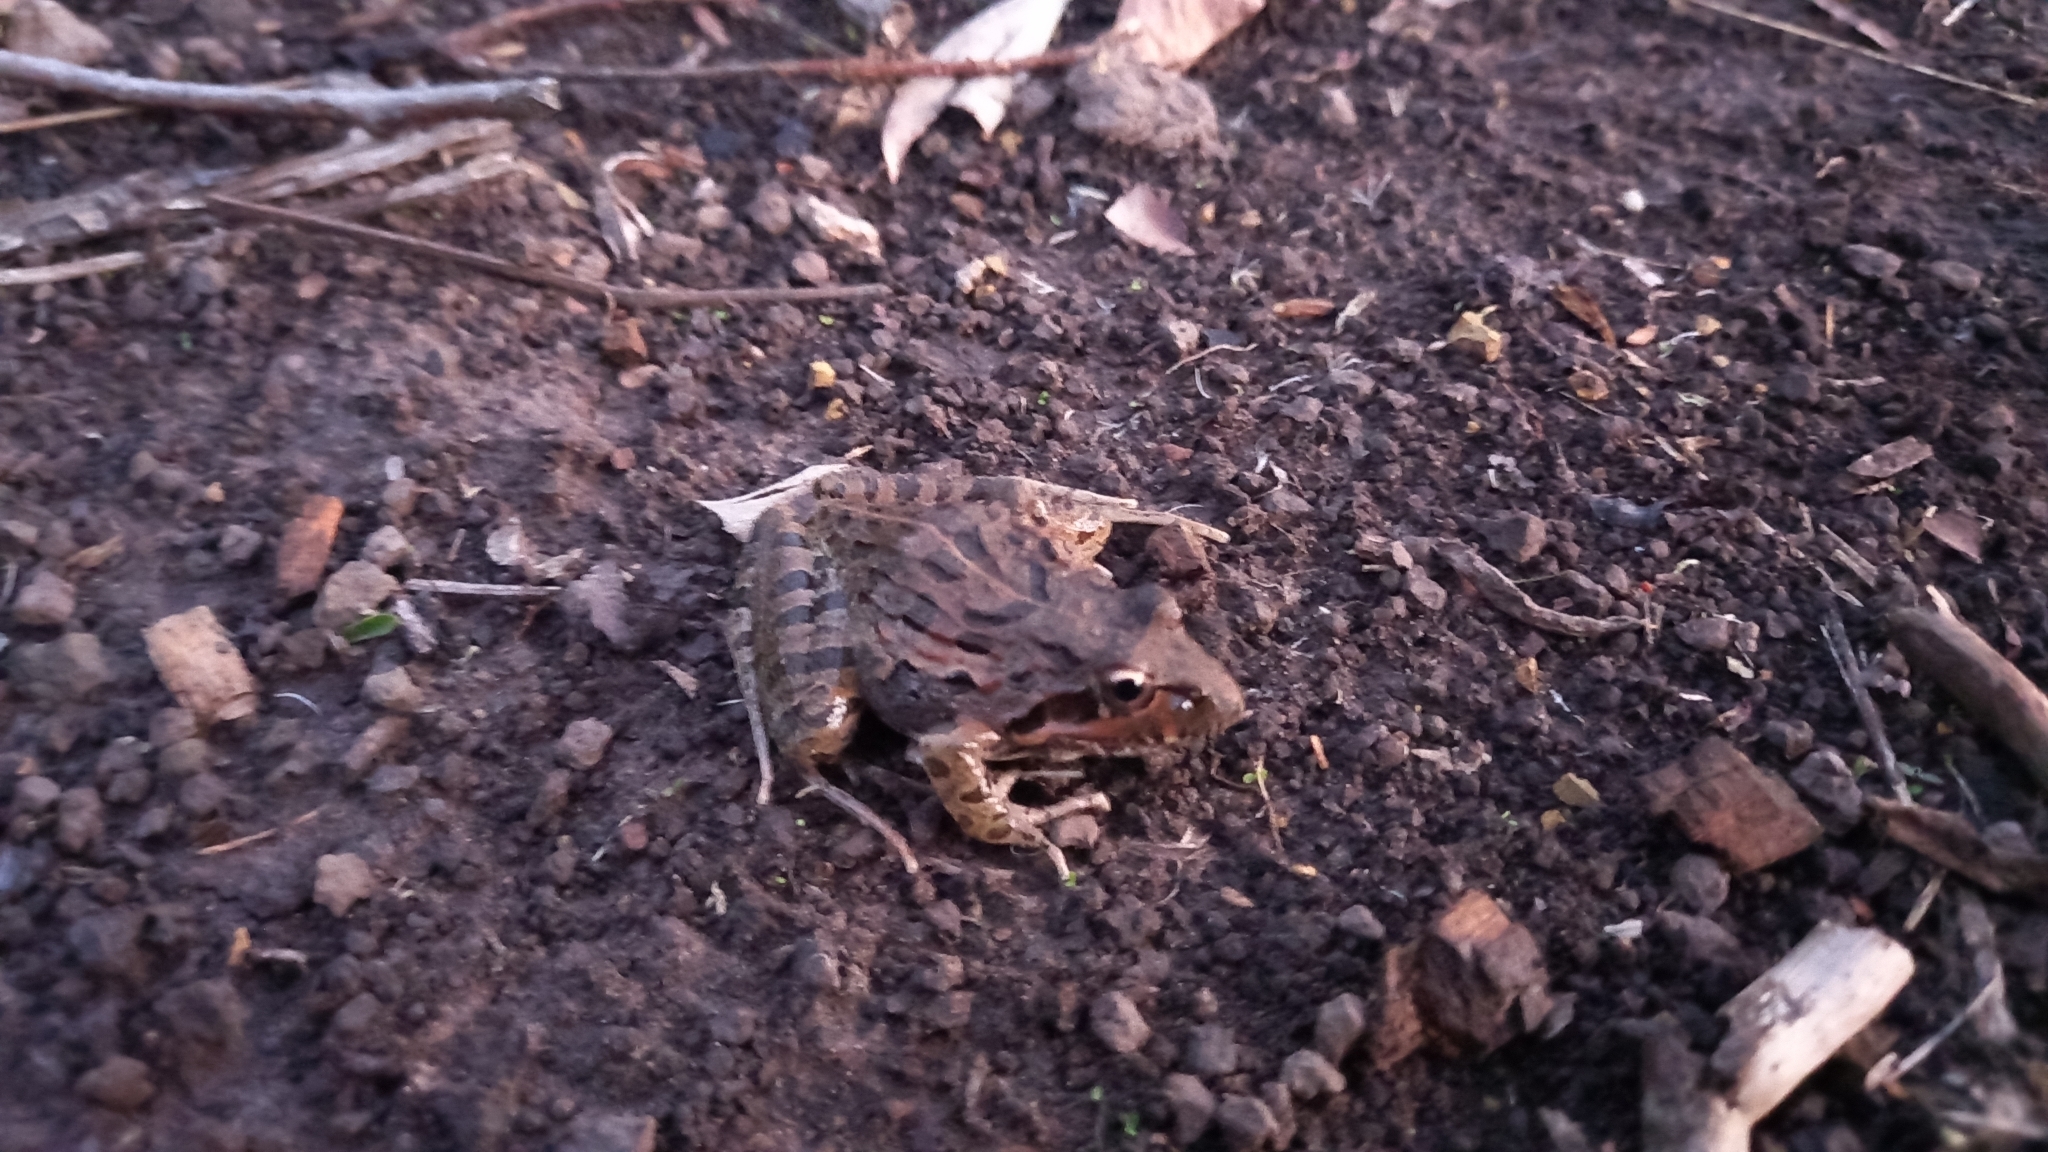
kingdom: Animalia
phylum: Chordata
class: Amphibia
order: Anura
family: Pyxicephalidae
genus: Strongylopus
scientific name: Strongylopus grayii
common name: Gray's stream frog
